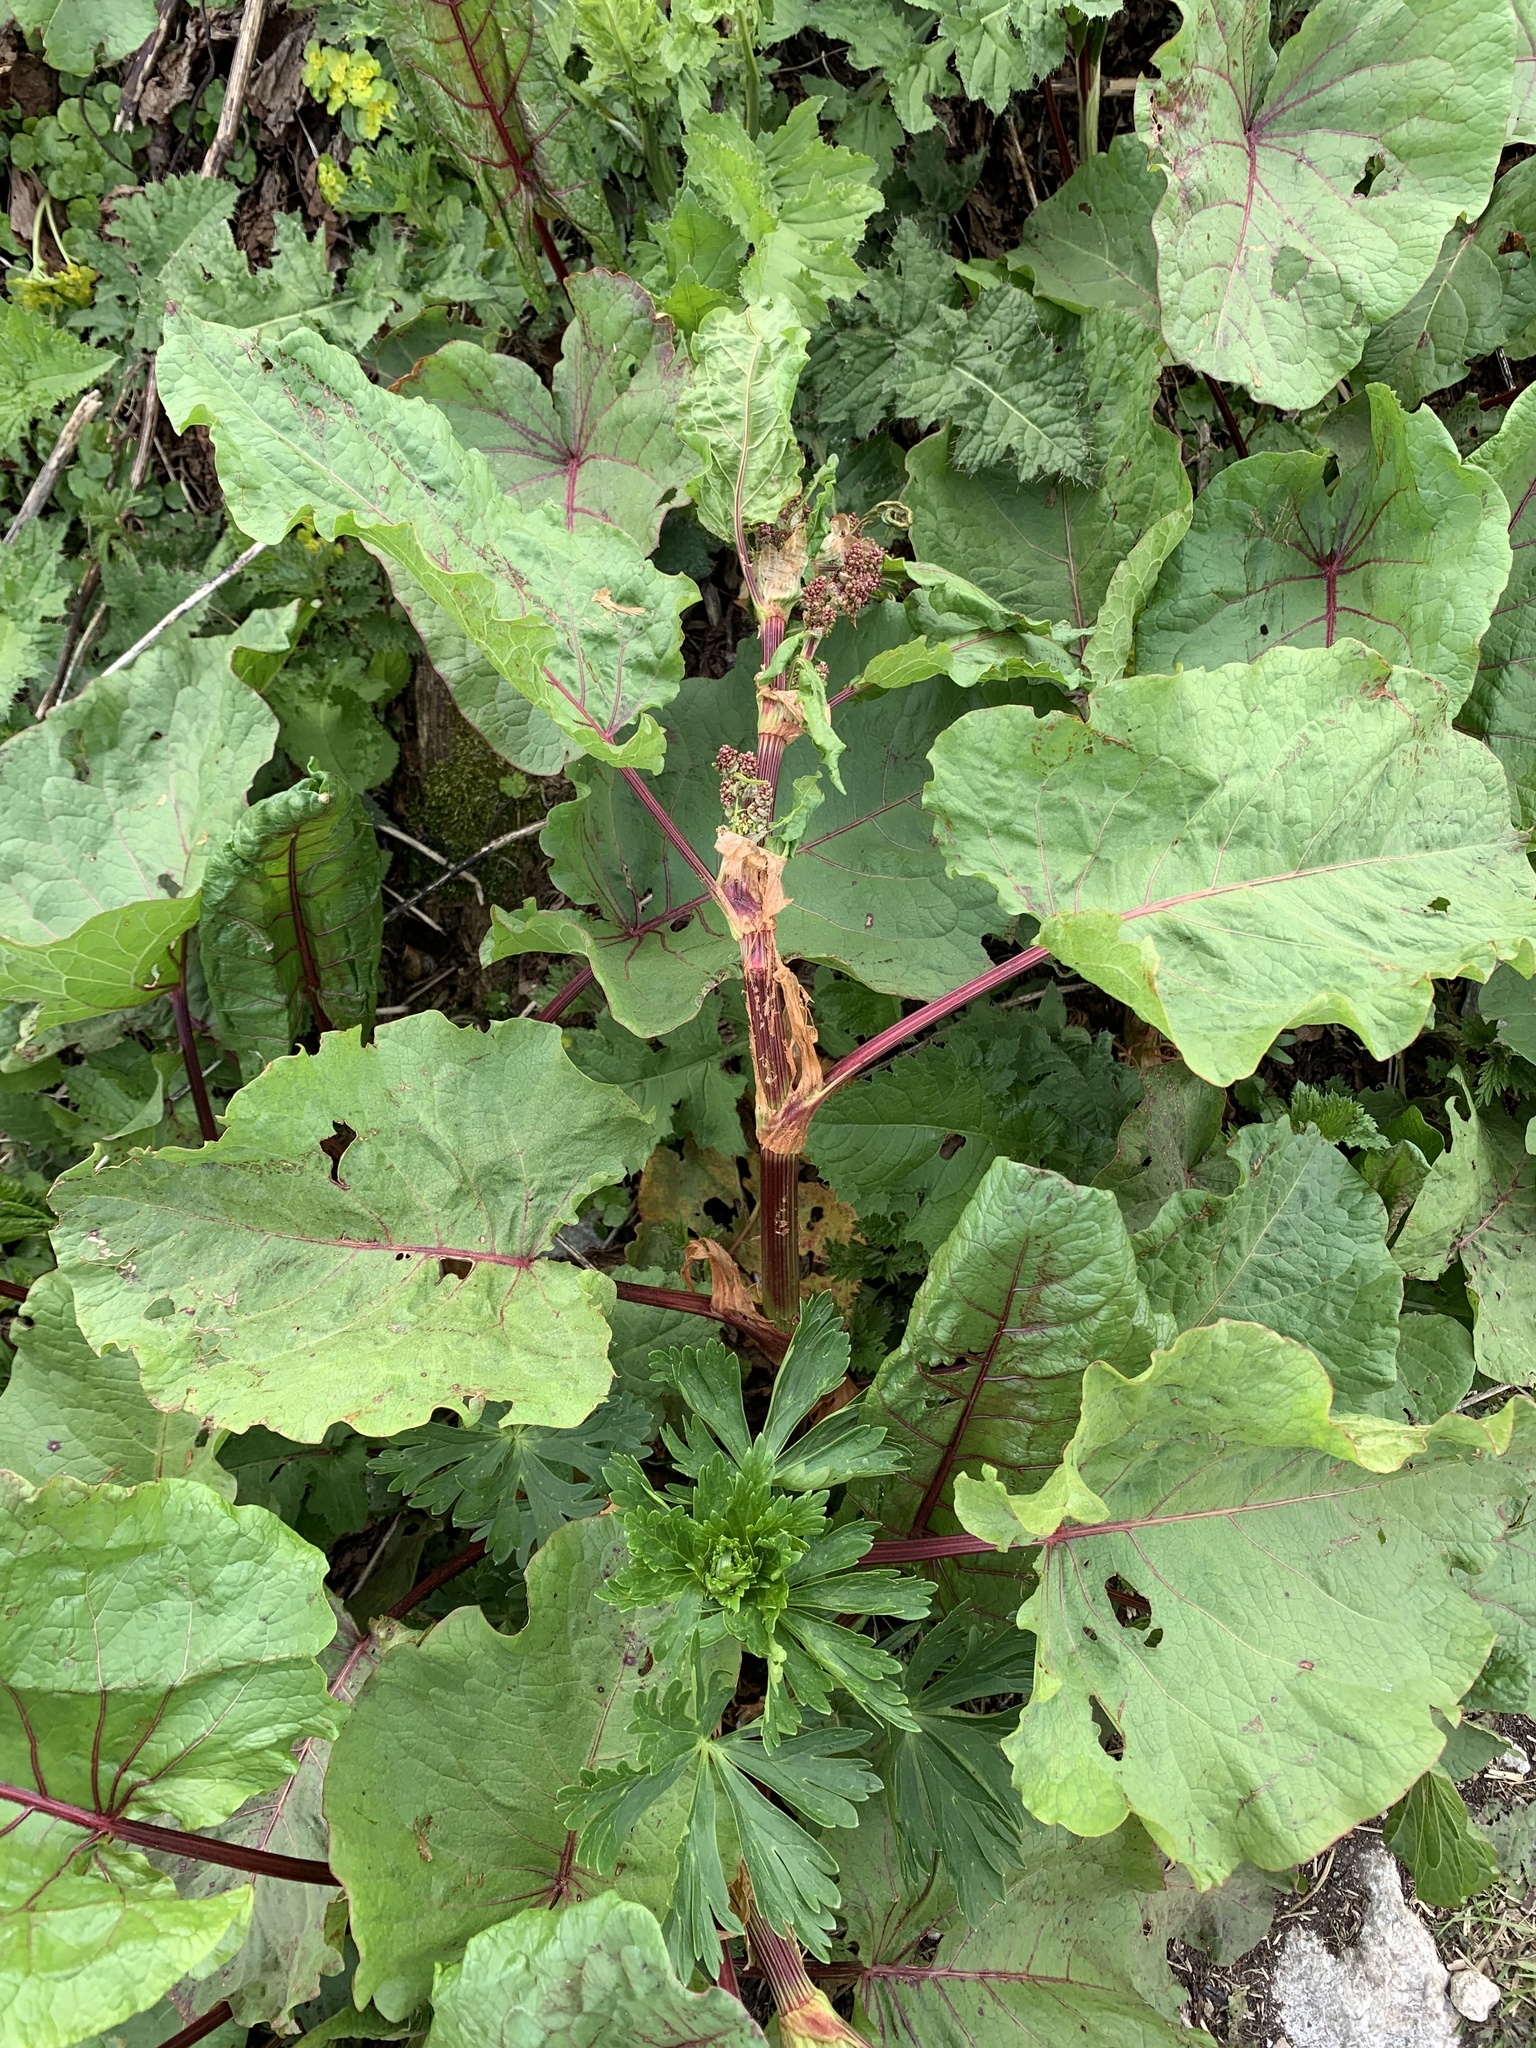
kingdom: Plantae
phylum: Tracheophyta
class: Magnoliopsida
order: Caryophyllales
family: Polygonaceae
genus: Rumex
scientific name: Rumex alpinus
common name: Alpine dock
